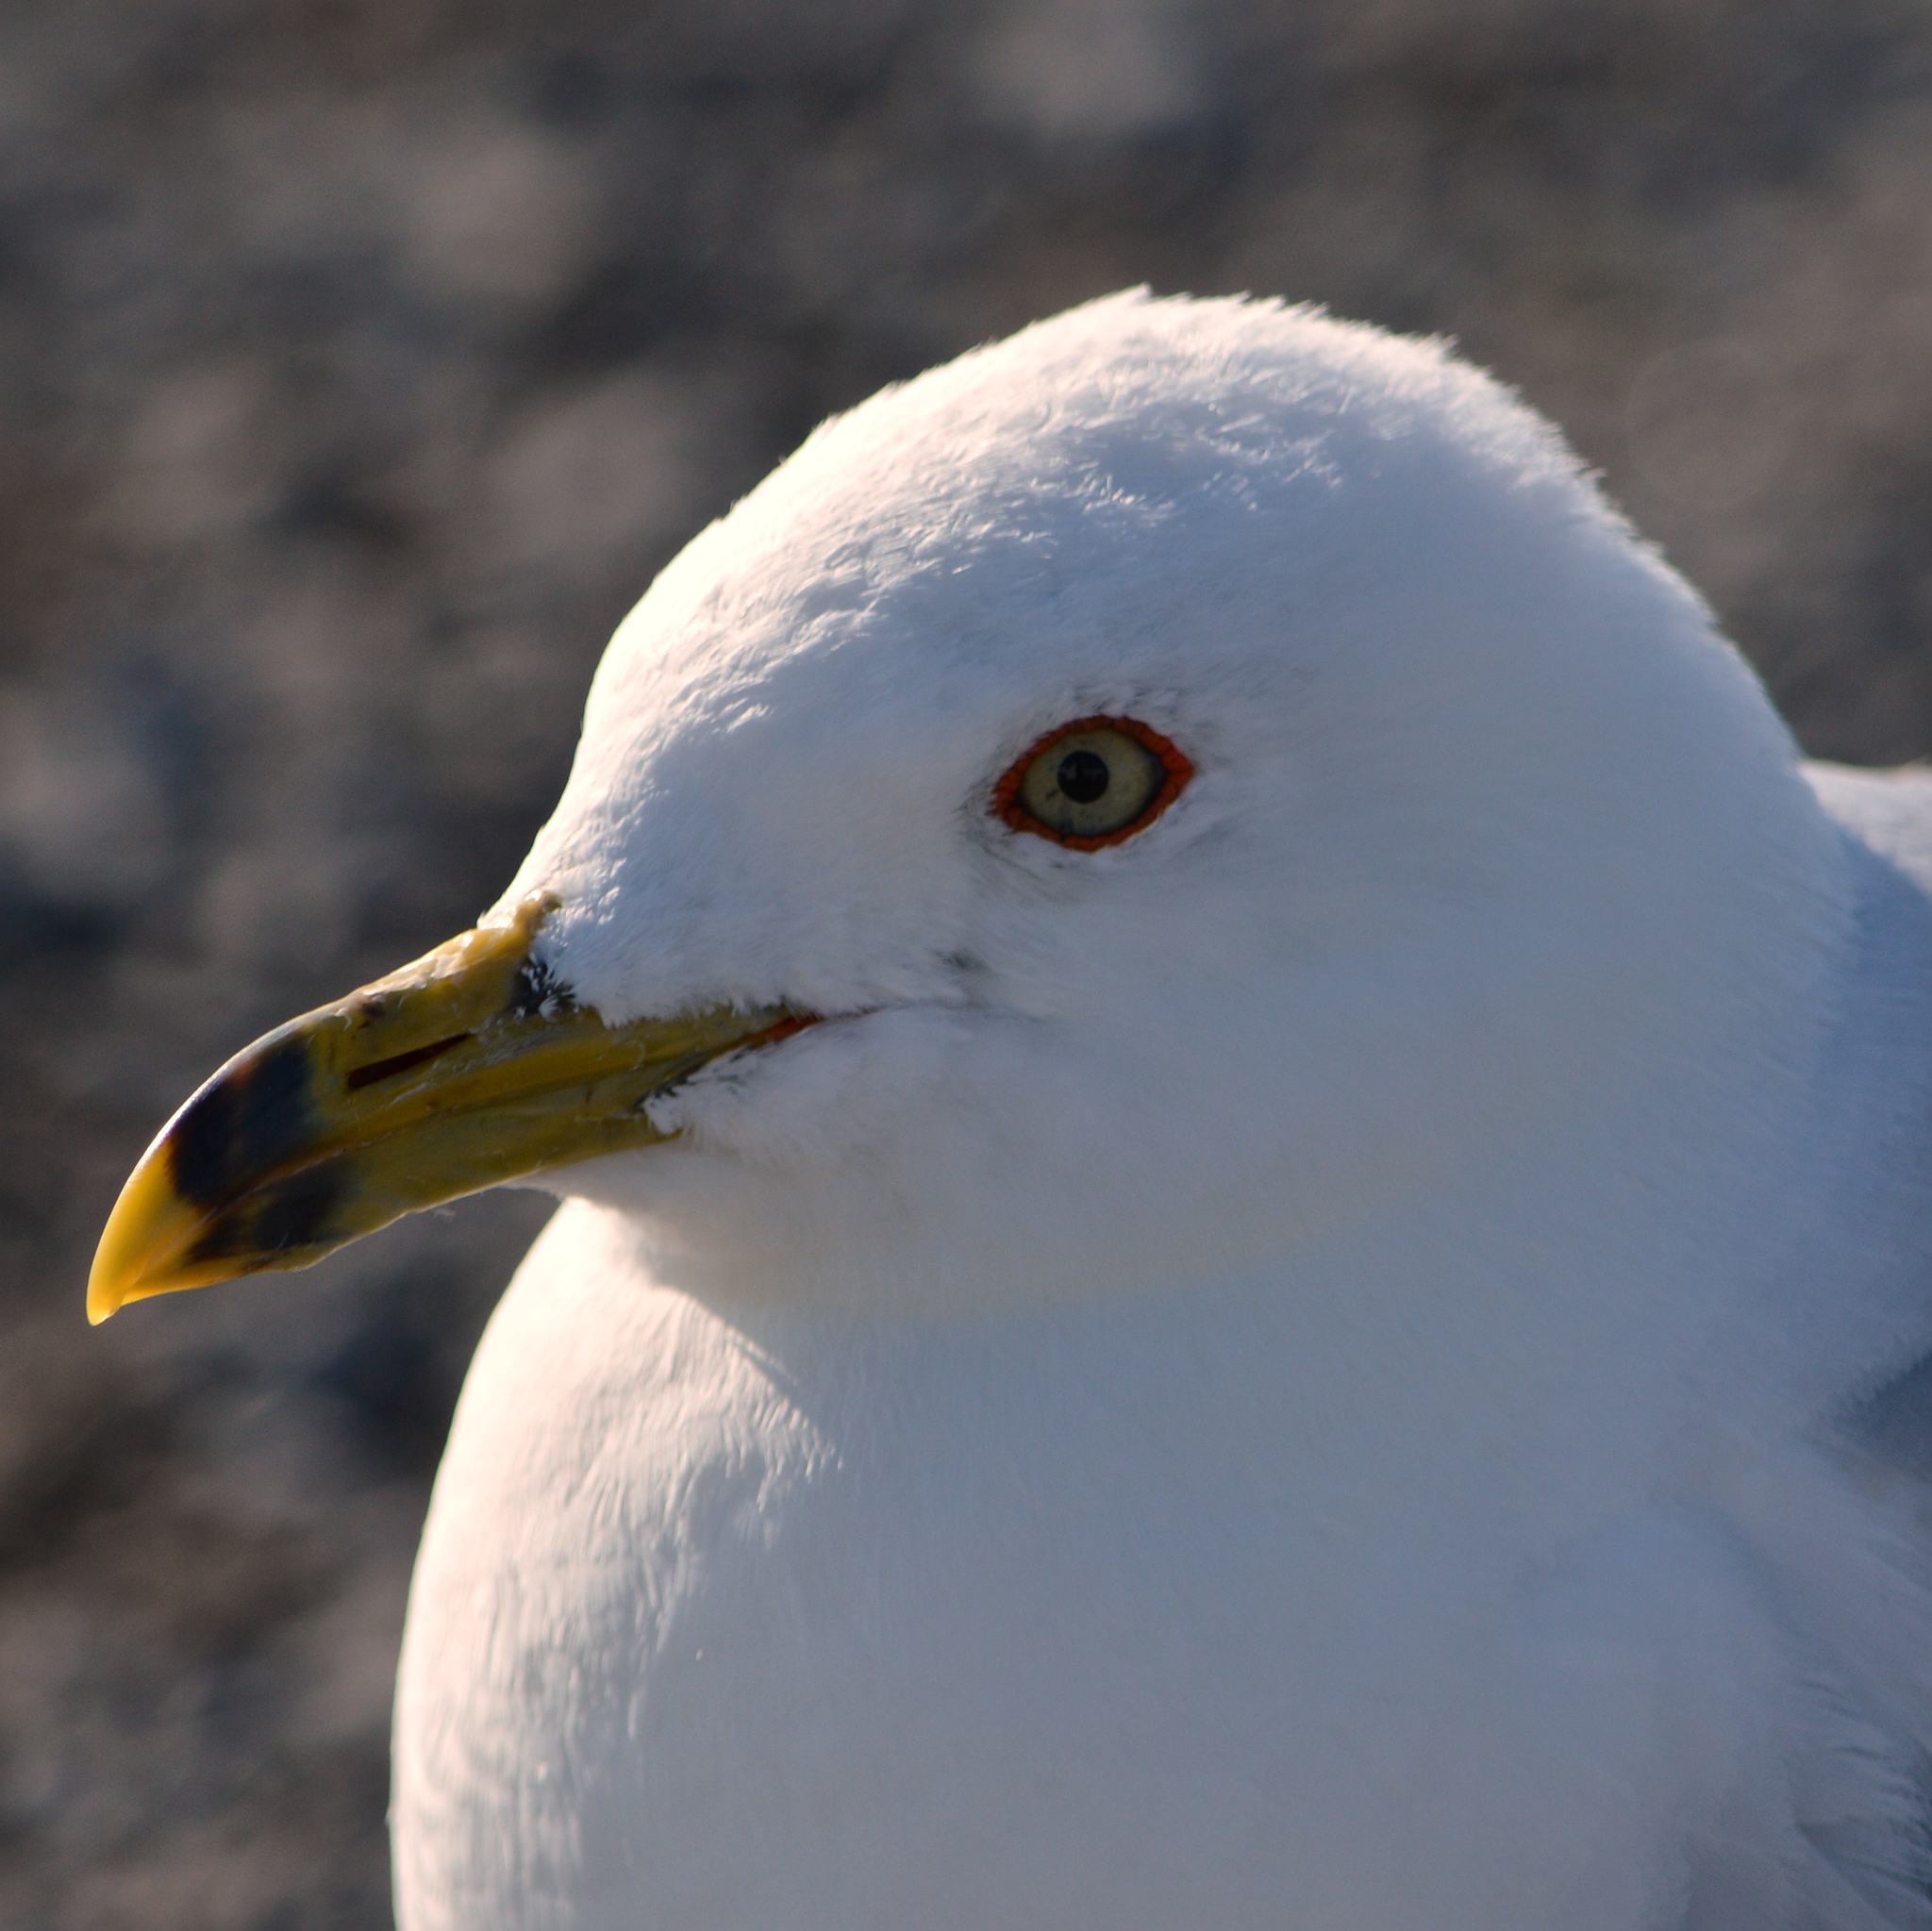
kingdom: Animalia
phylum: Chordata
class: Aves
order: Charadriiformes
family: Laridae
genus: Larus
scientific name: Larus delawarensis
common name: Ring-billed gull
